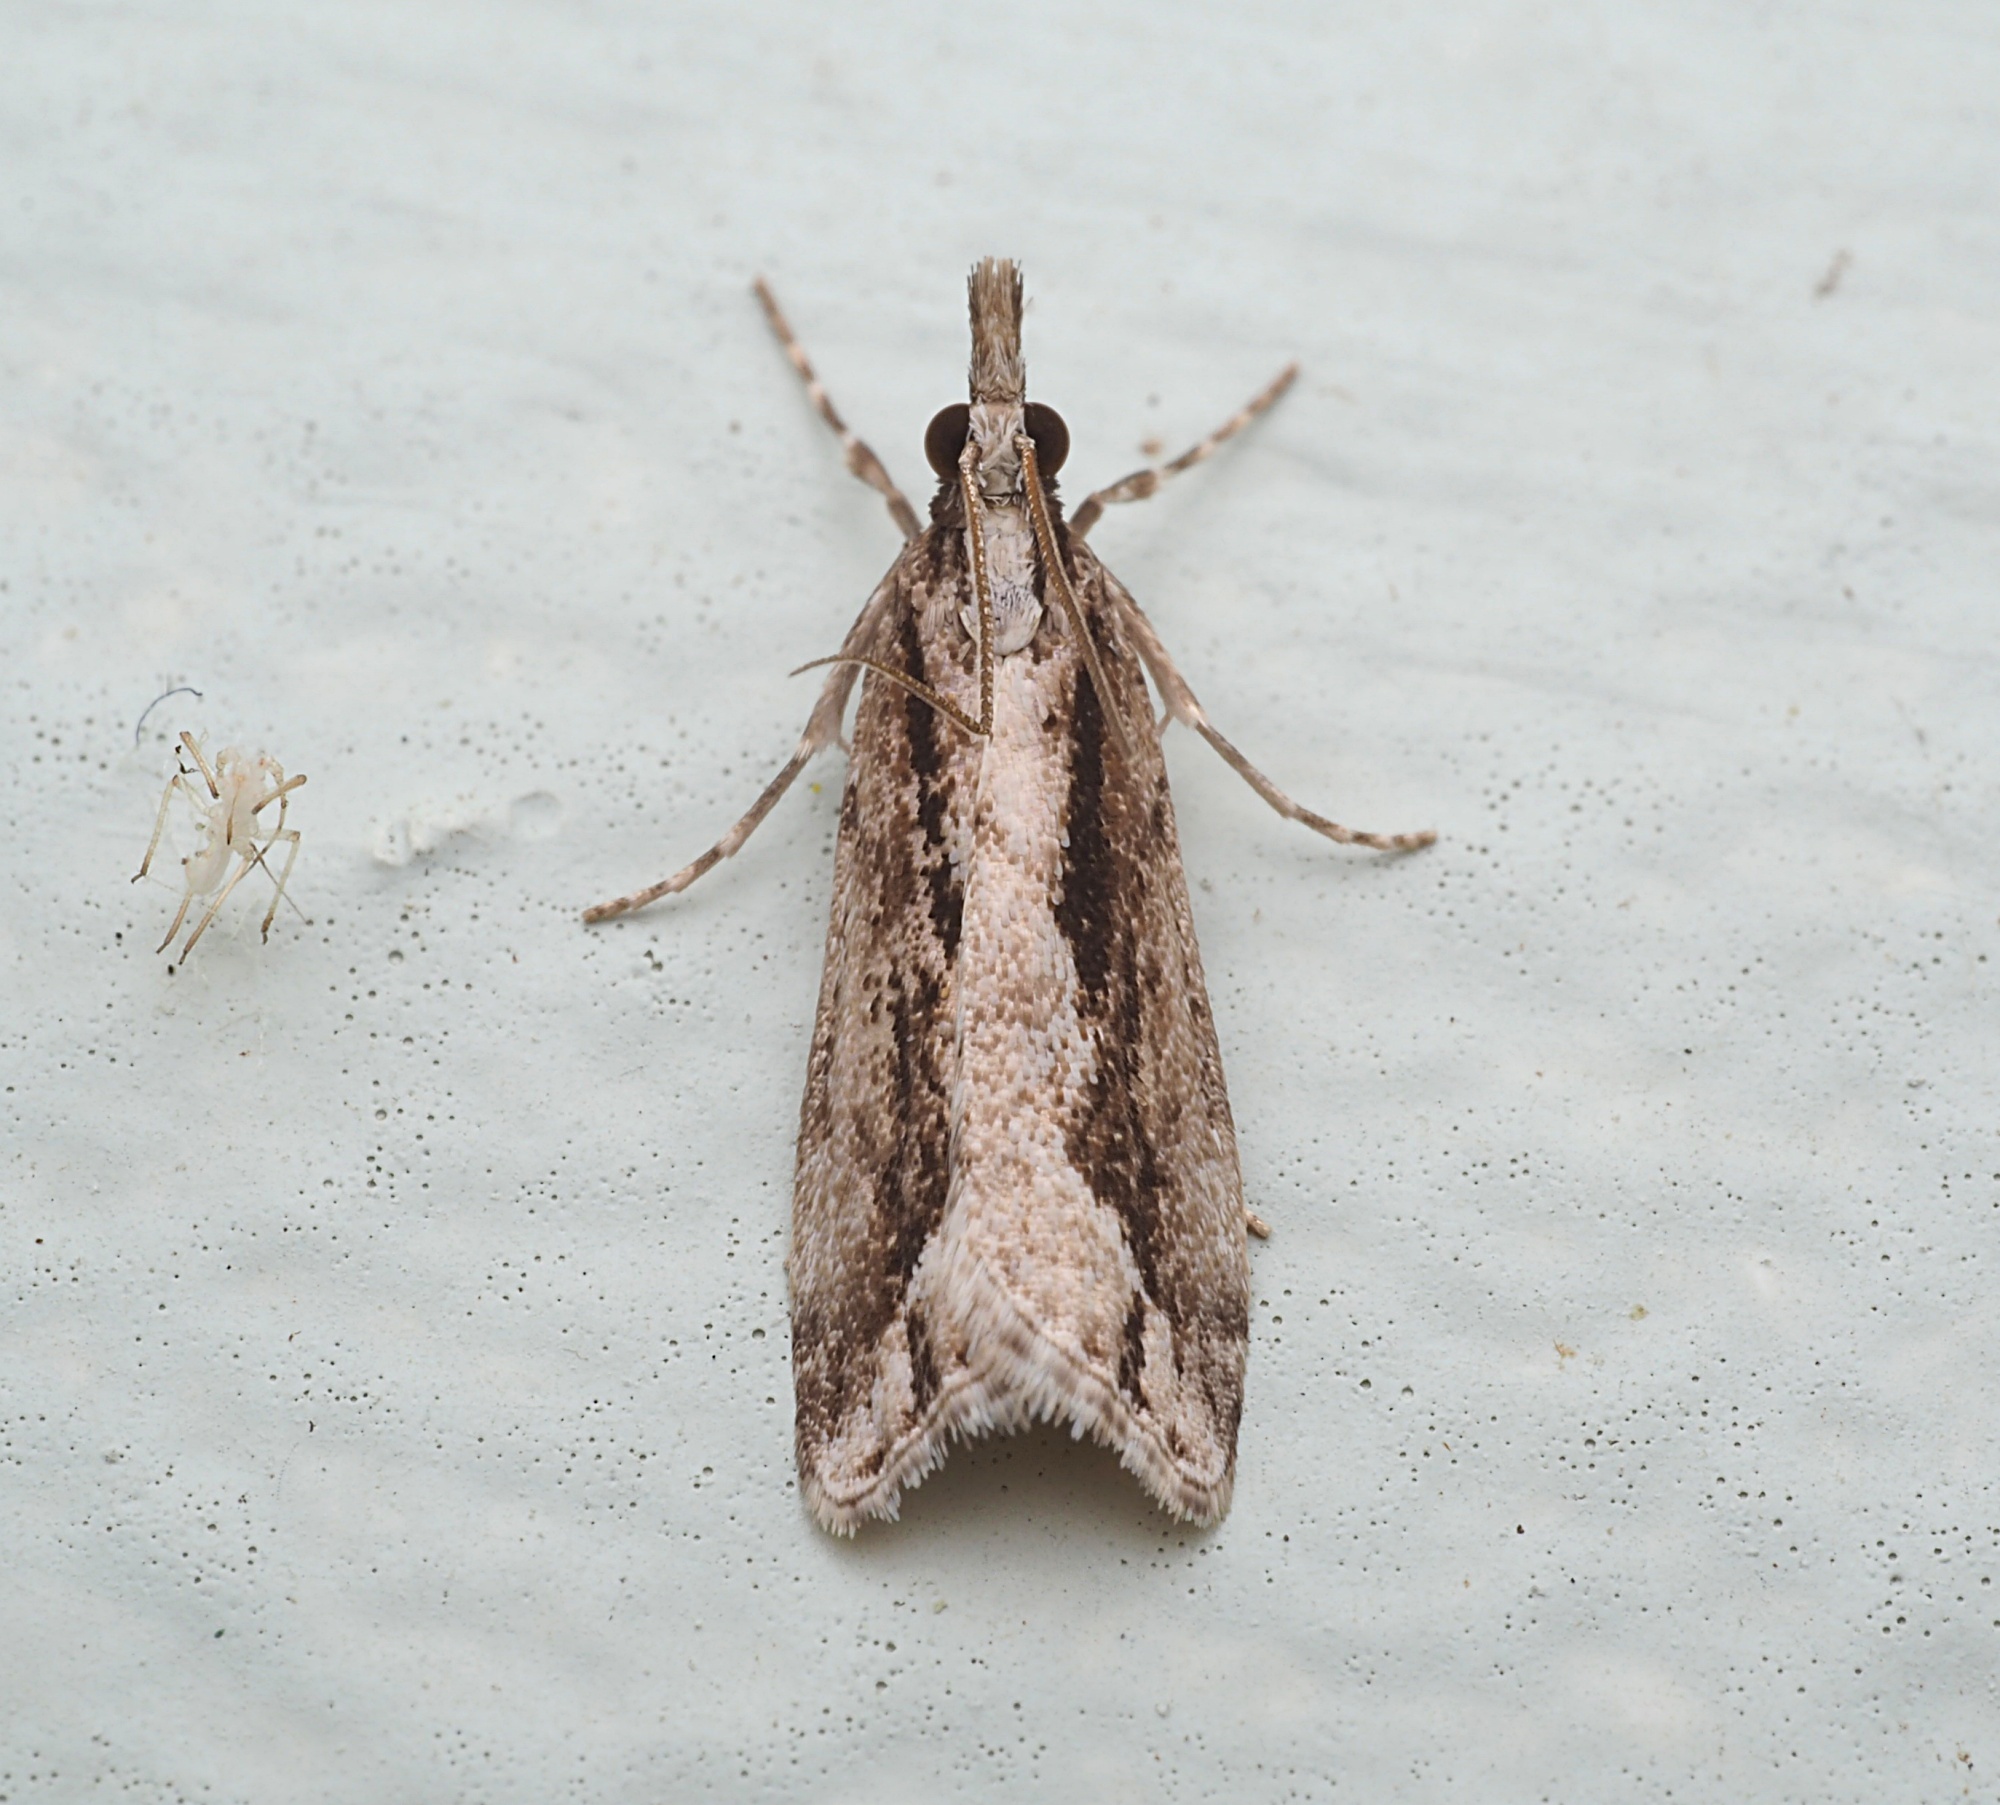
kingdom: Animalia
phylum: Arthropoda
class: Insecta
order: Lepidoptera
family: Crambidae
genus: Eudonia
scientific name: Eudonia steropaea
